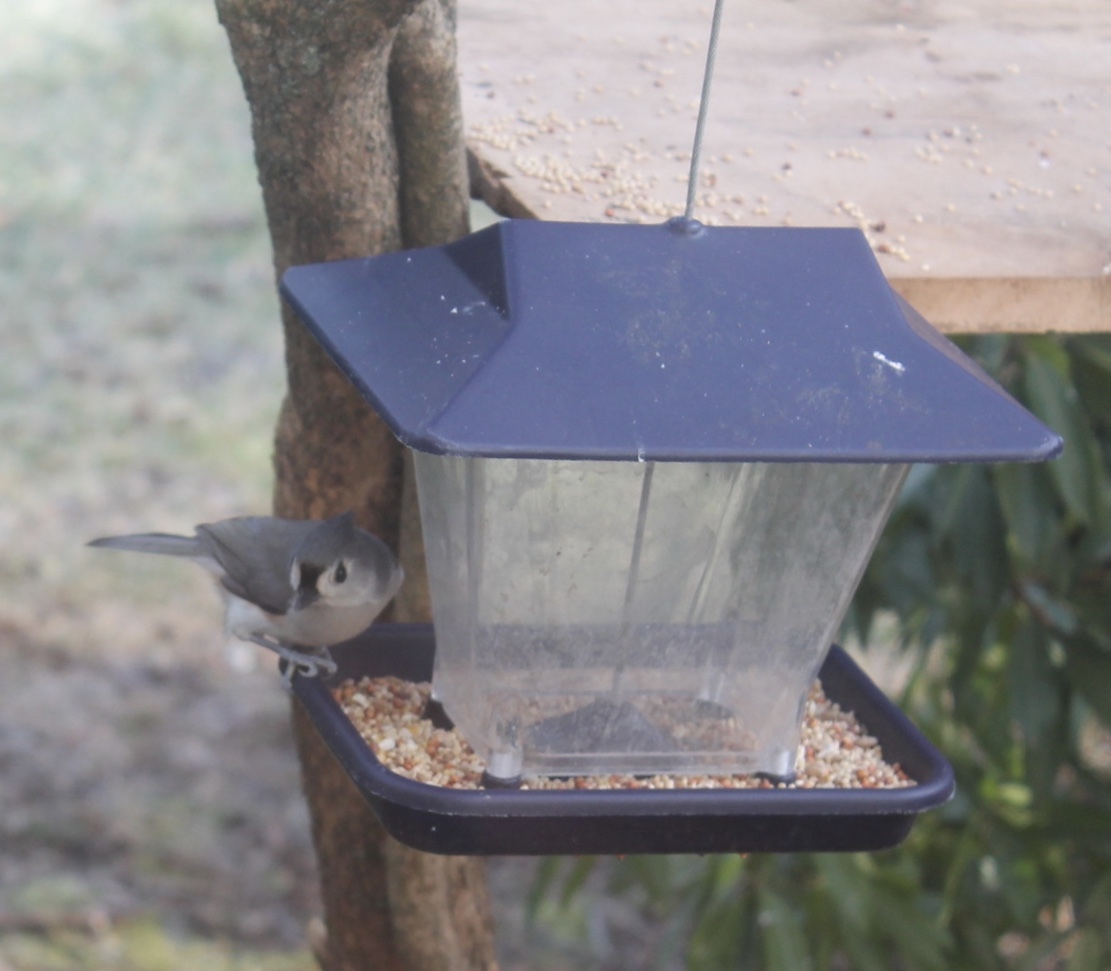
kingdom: Animalia
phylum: Chordata
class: Aves
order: Passeriformes
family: Paridae
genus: Baeolophus
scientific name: Baeolophus bicolor
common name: Tufted titmouse
